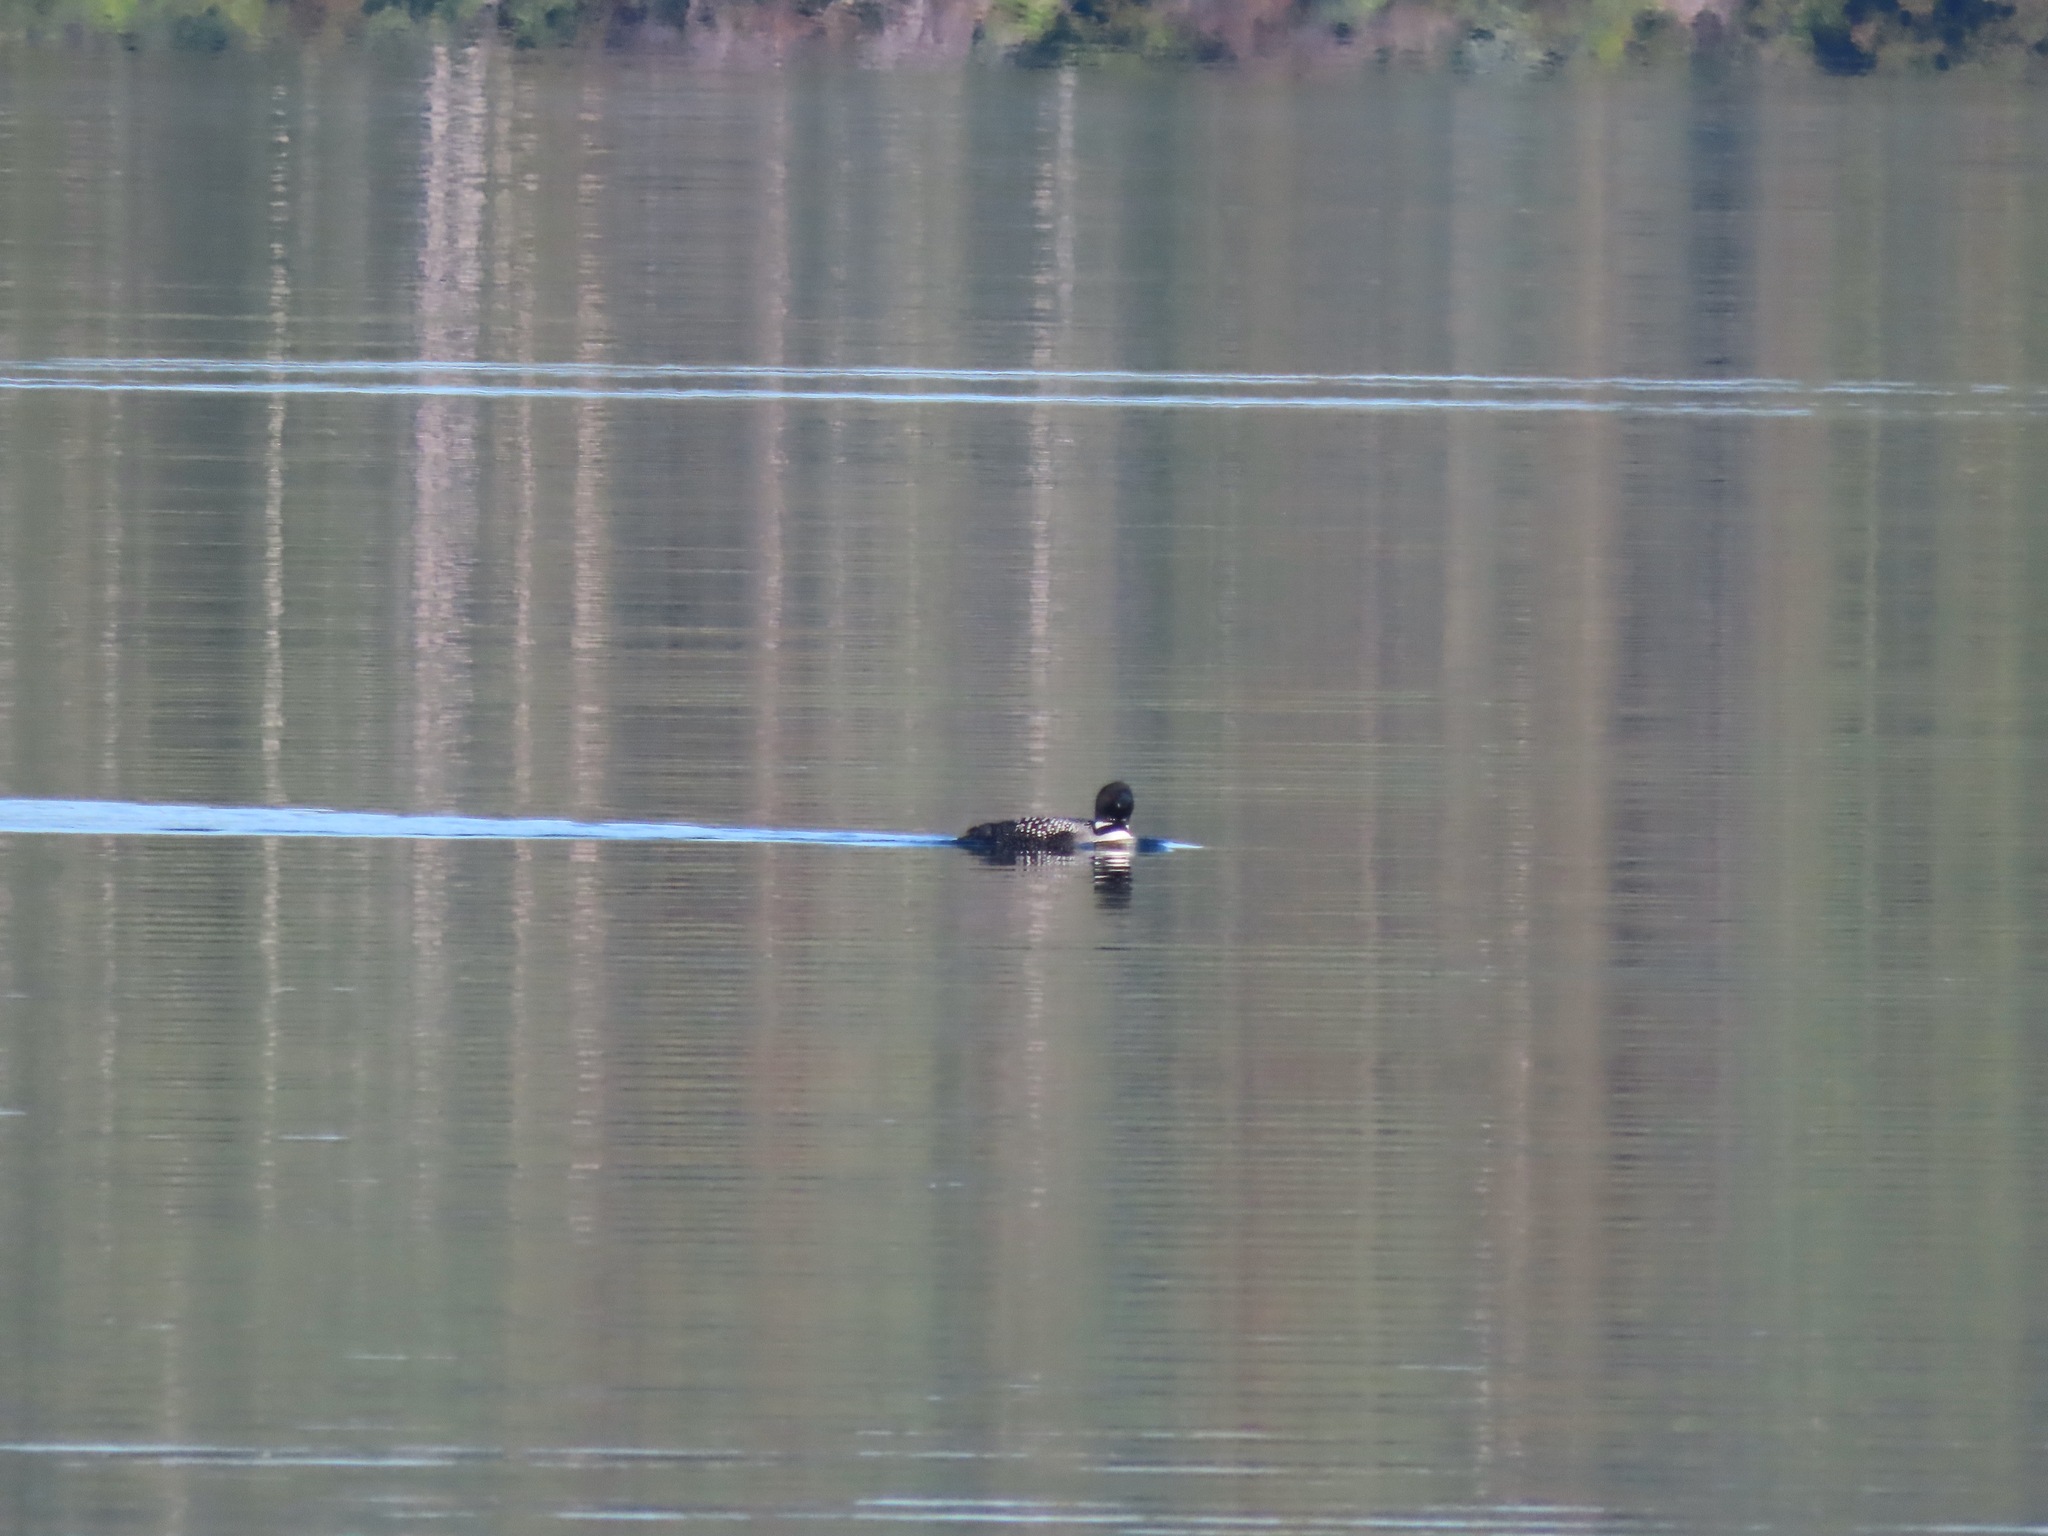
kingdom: Animalia
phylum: Chordata
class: Aves
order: Gaviiformes
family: Gaviidae
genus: Gavia
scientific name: Gavia immer
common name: Common loon
